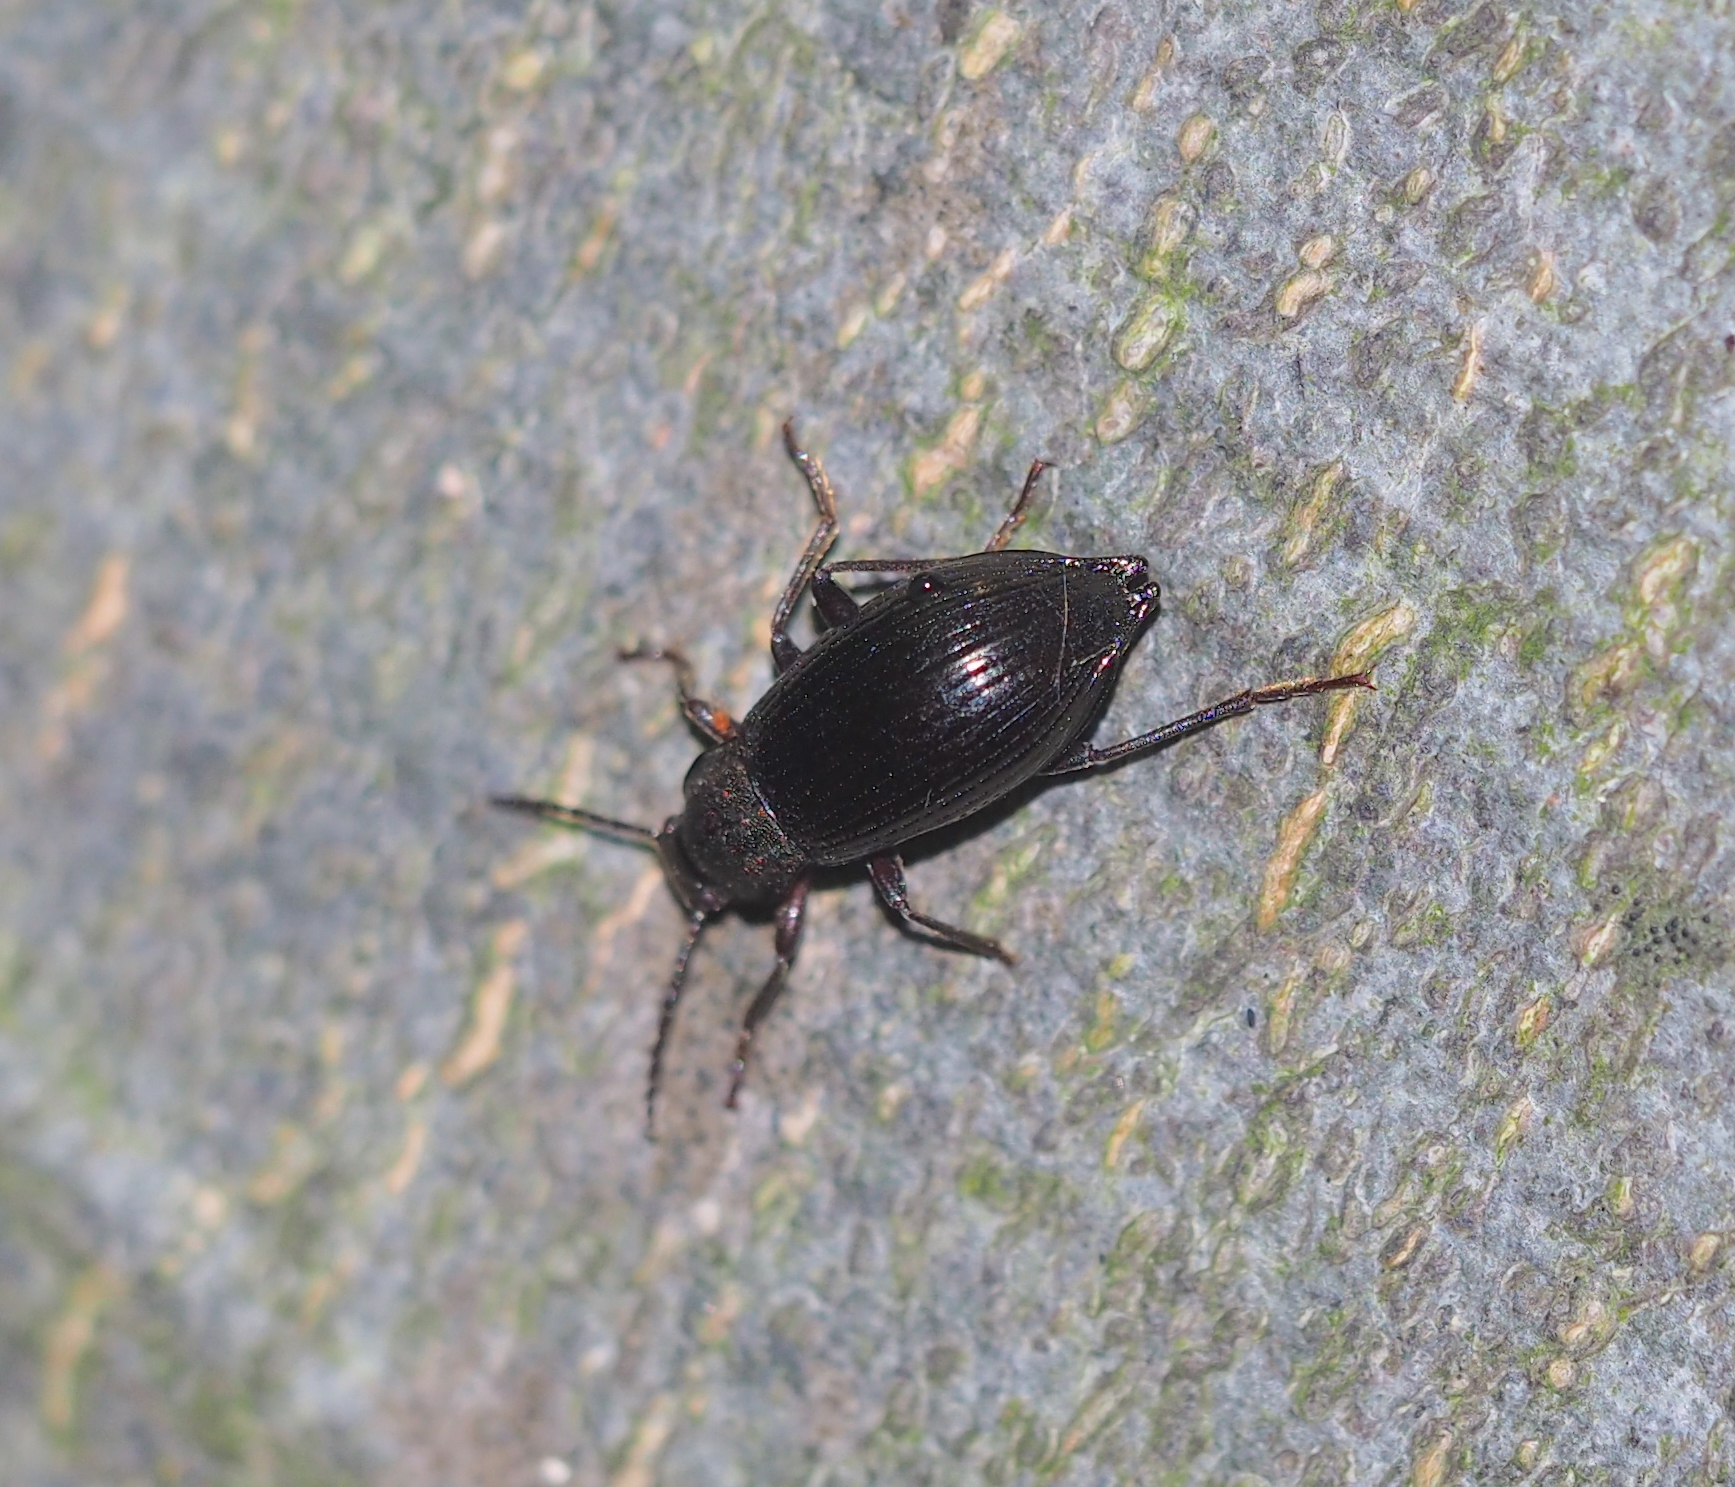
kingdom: Animalia
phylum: Arthropoda
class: Insecta
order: Coleoptera
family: Tenebrionidae
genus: Stenomax
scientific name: Stenomax aeneus
